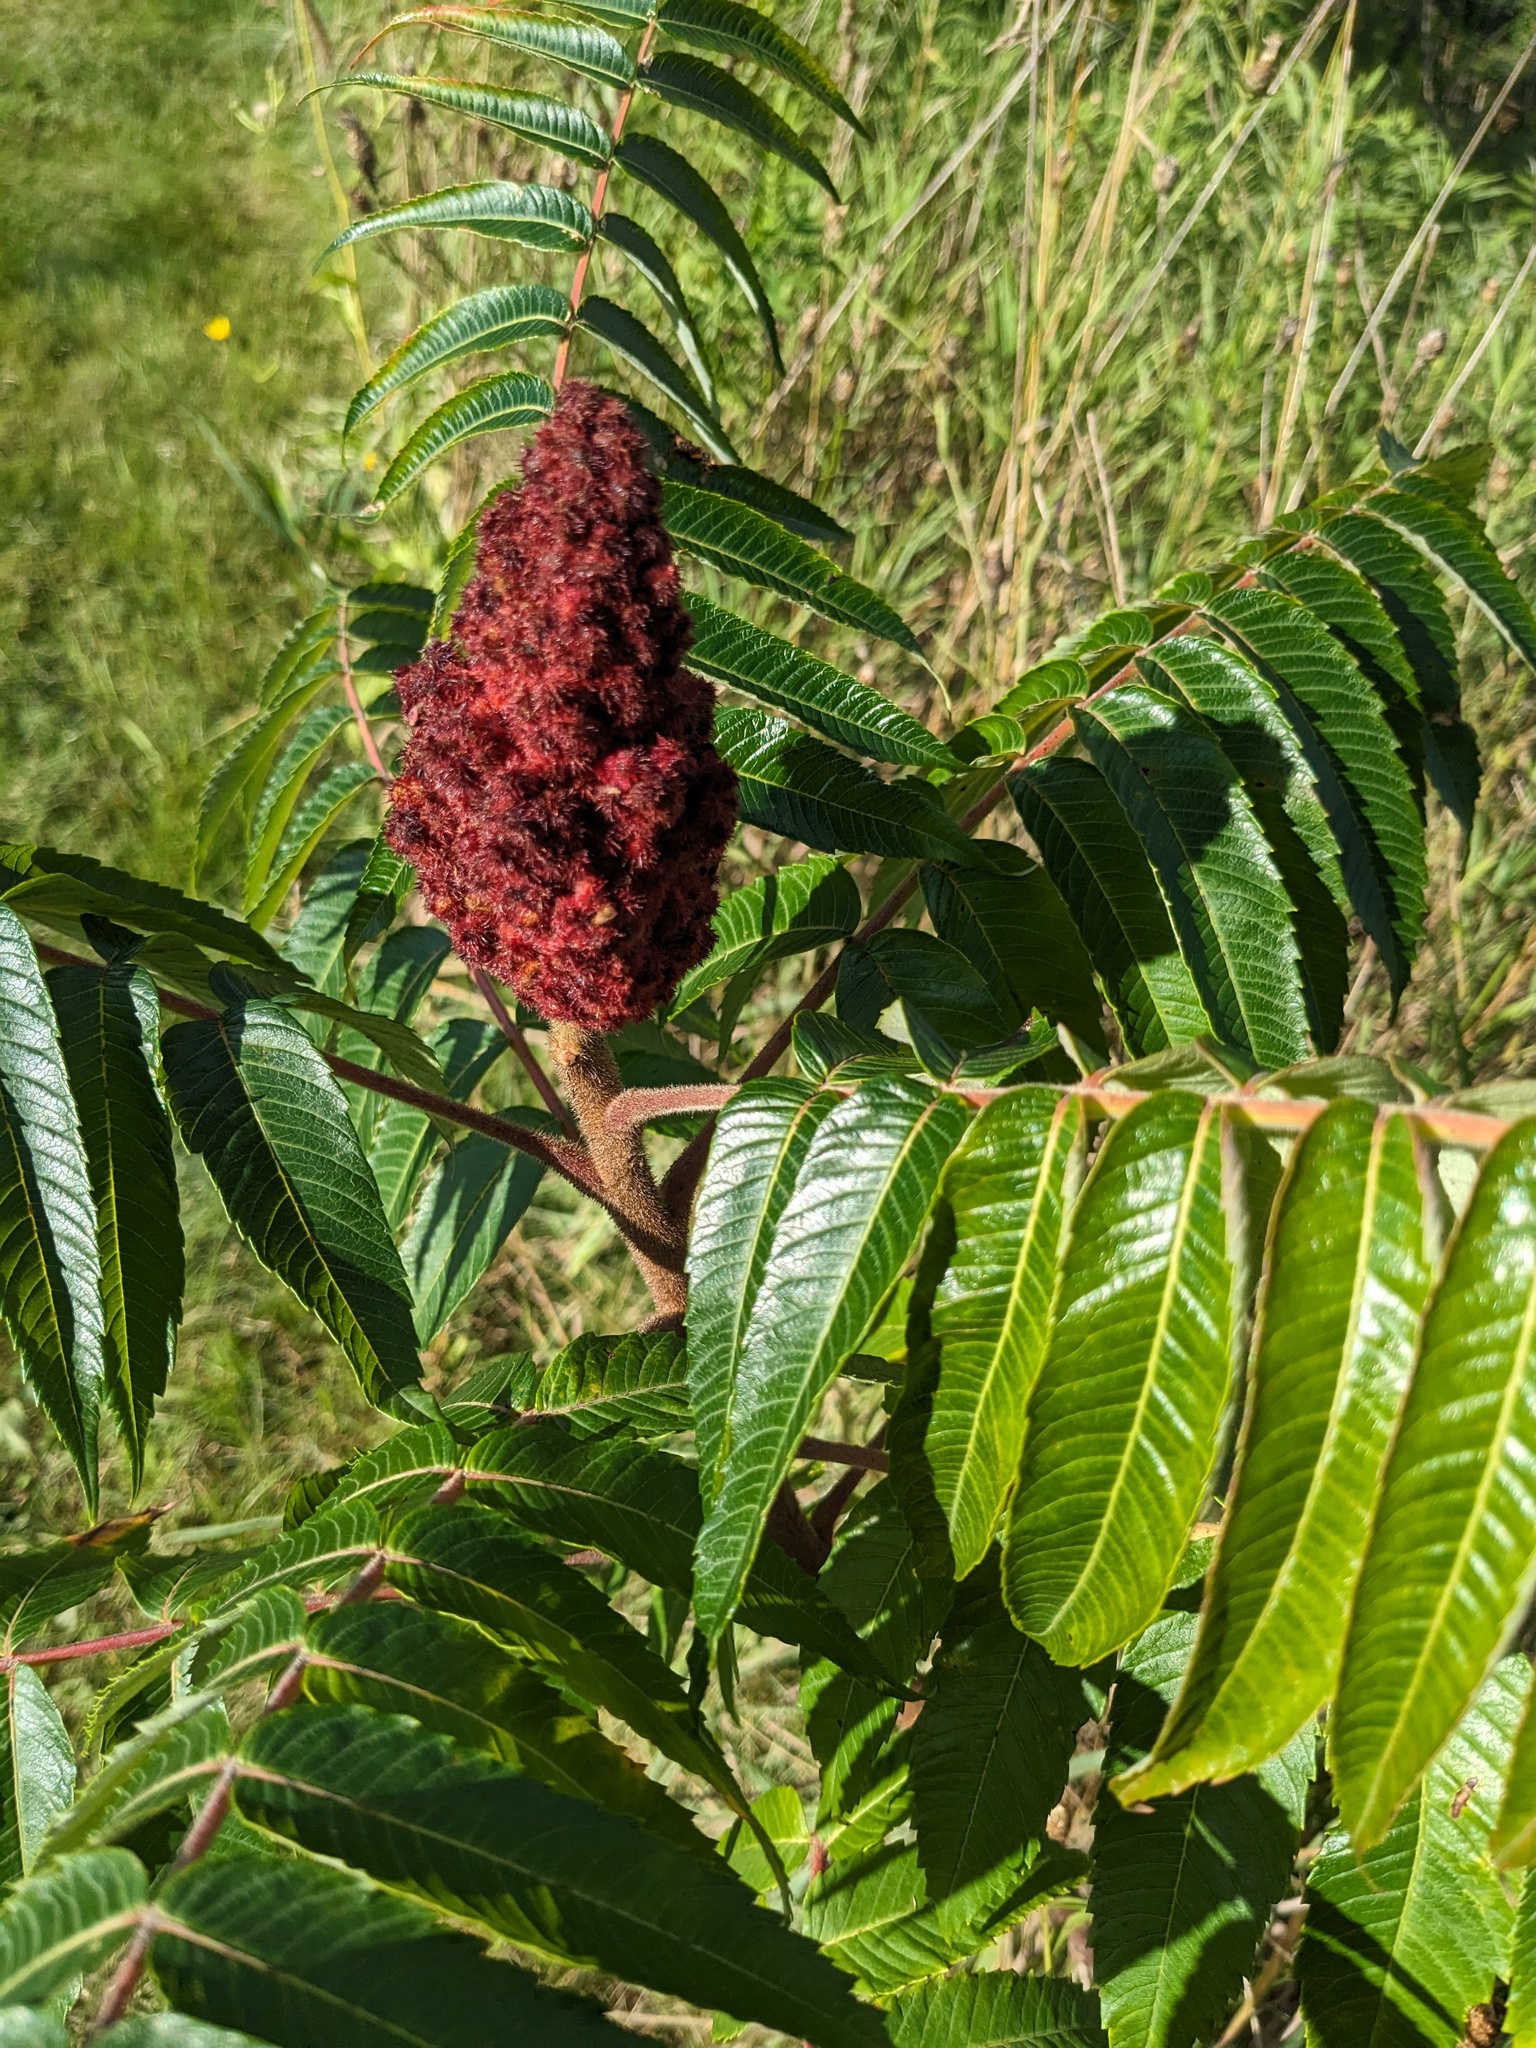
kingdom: Plantae
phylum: Tracheophyta
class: Magnoliopsida
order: Sapindales
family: Anacardiaceae
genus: Rhus
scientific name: Rhus typhina
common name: Staghorn sumac
